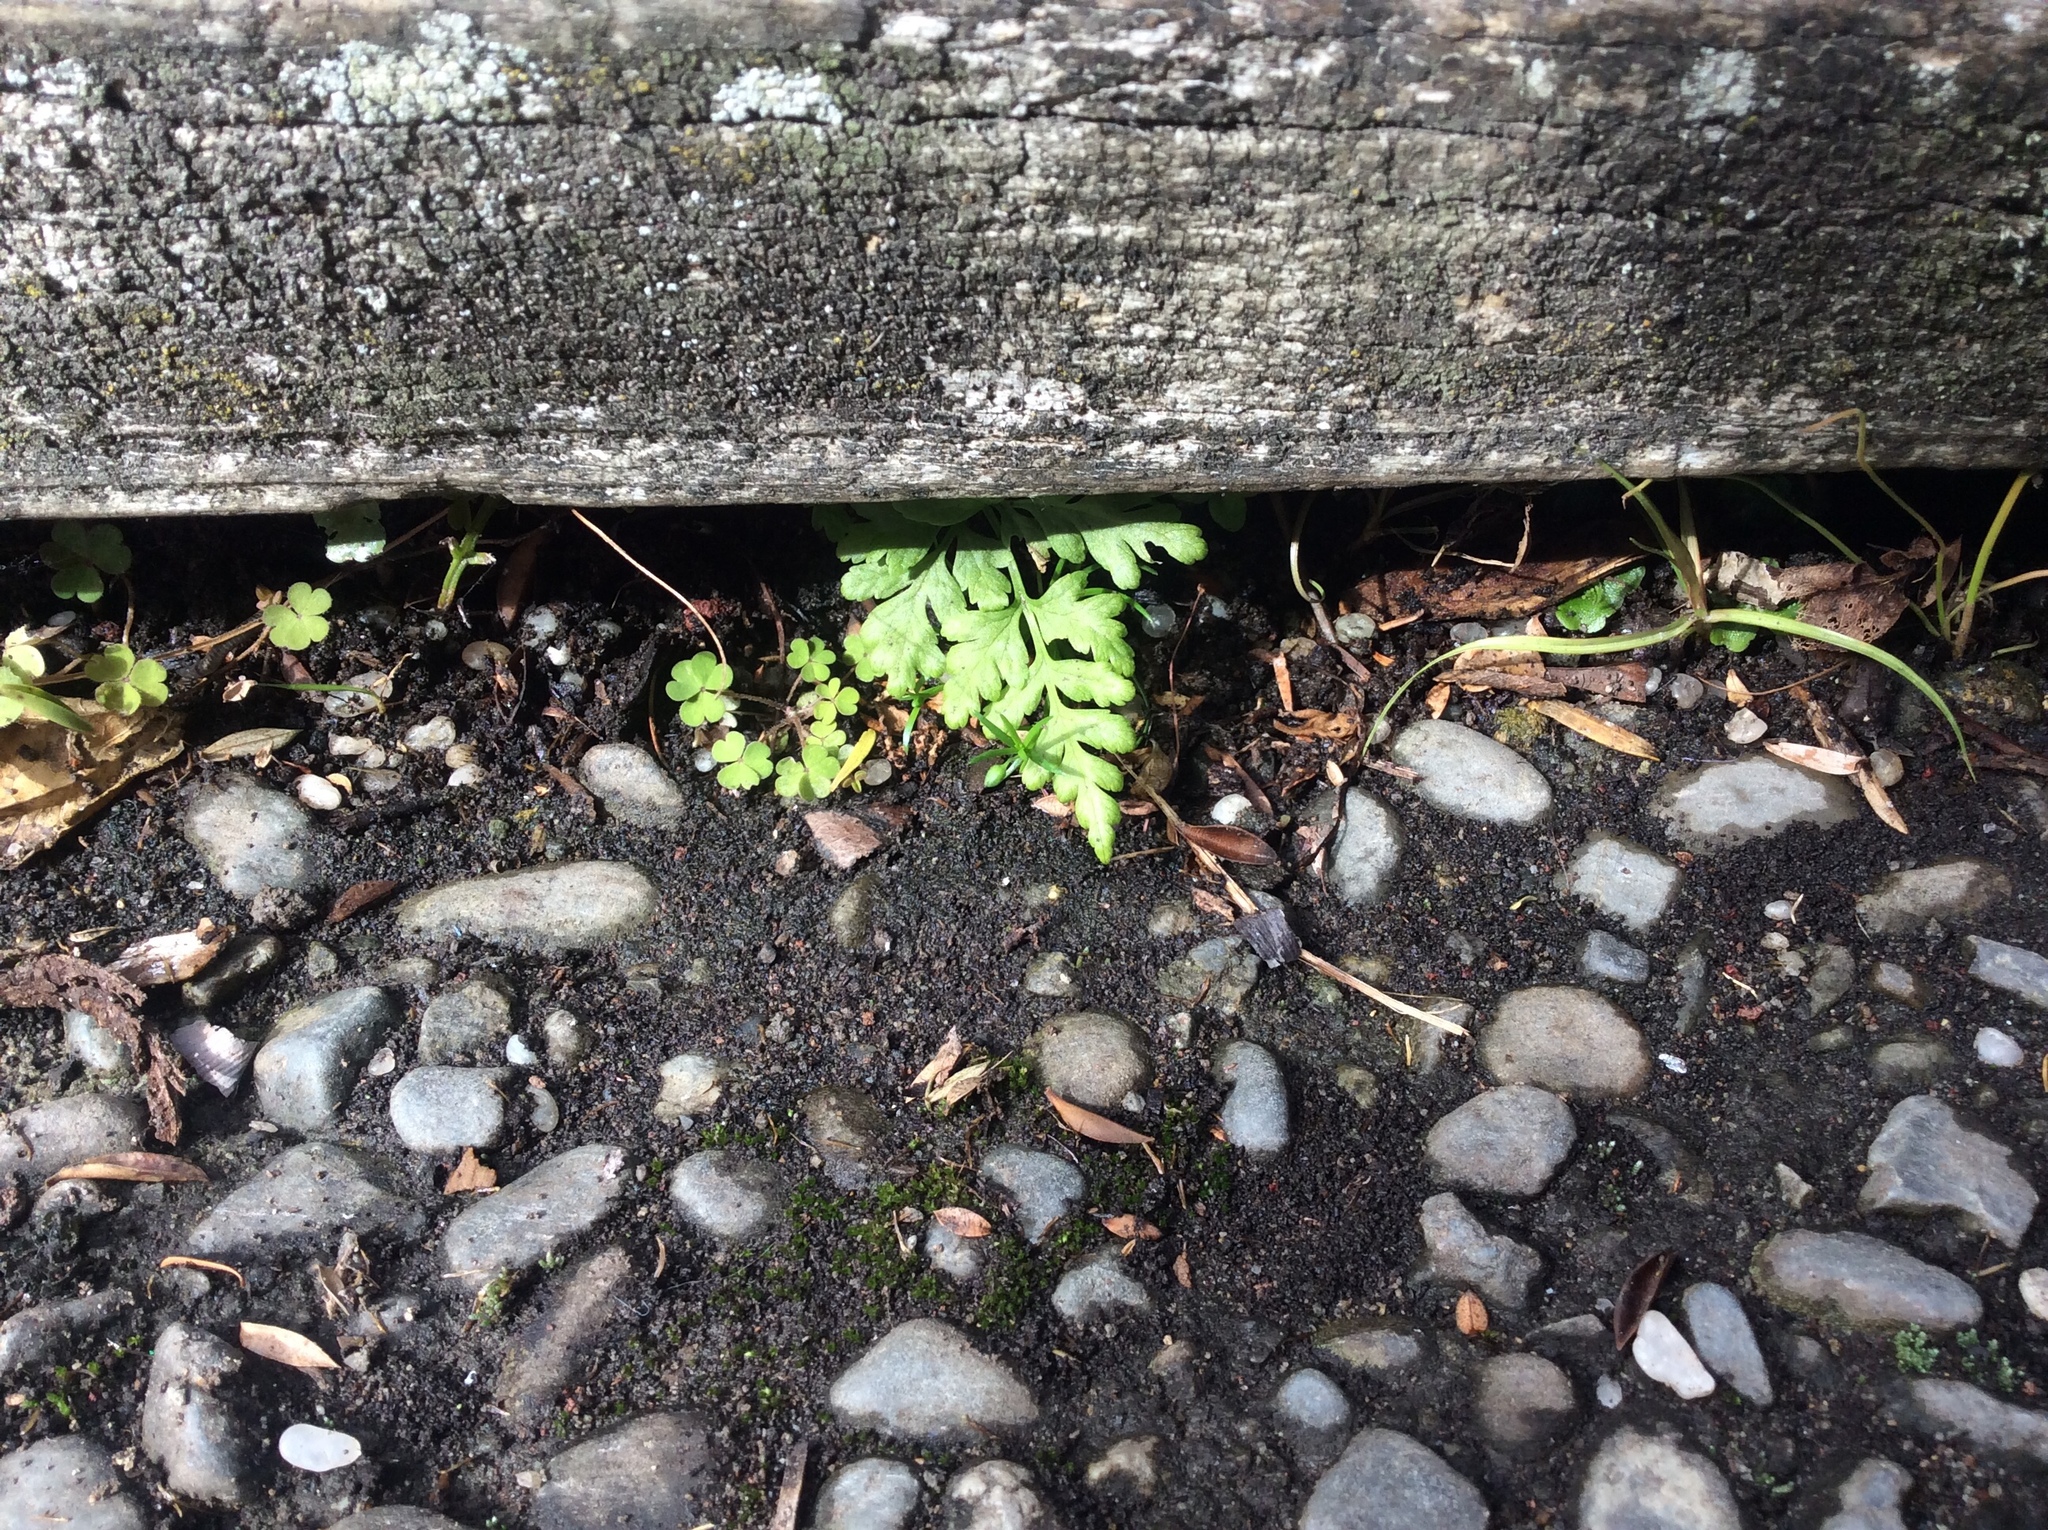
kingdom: Plantae
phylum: Tracheophyta
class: Polypodiopsida
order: Polypodiales
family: Pteridaceae
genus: Pteris
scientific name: Pteris tremula
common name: Australian brake
